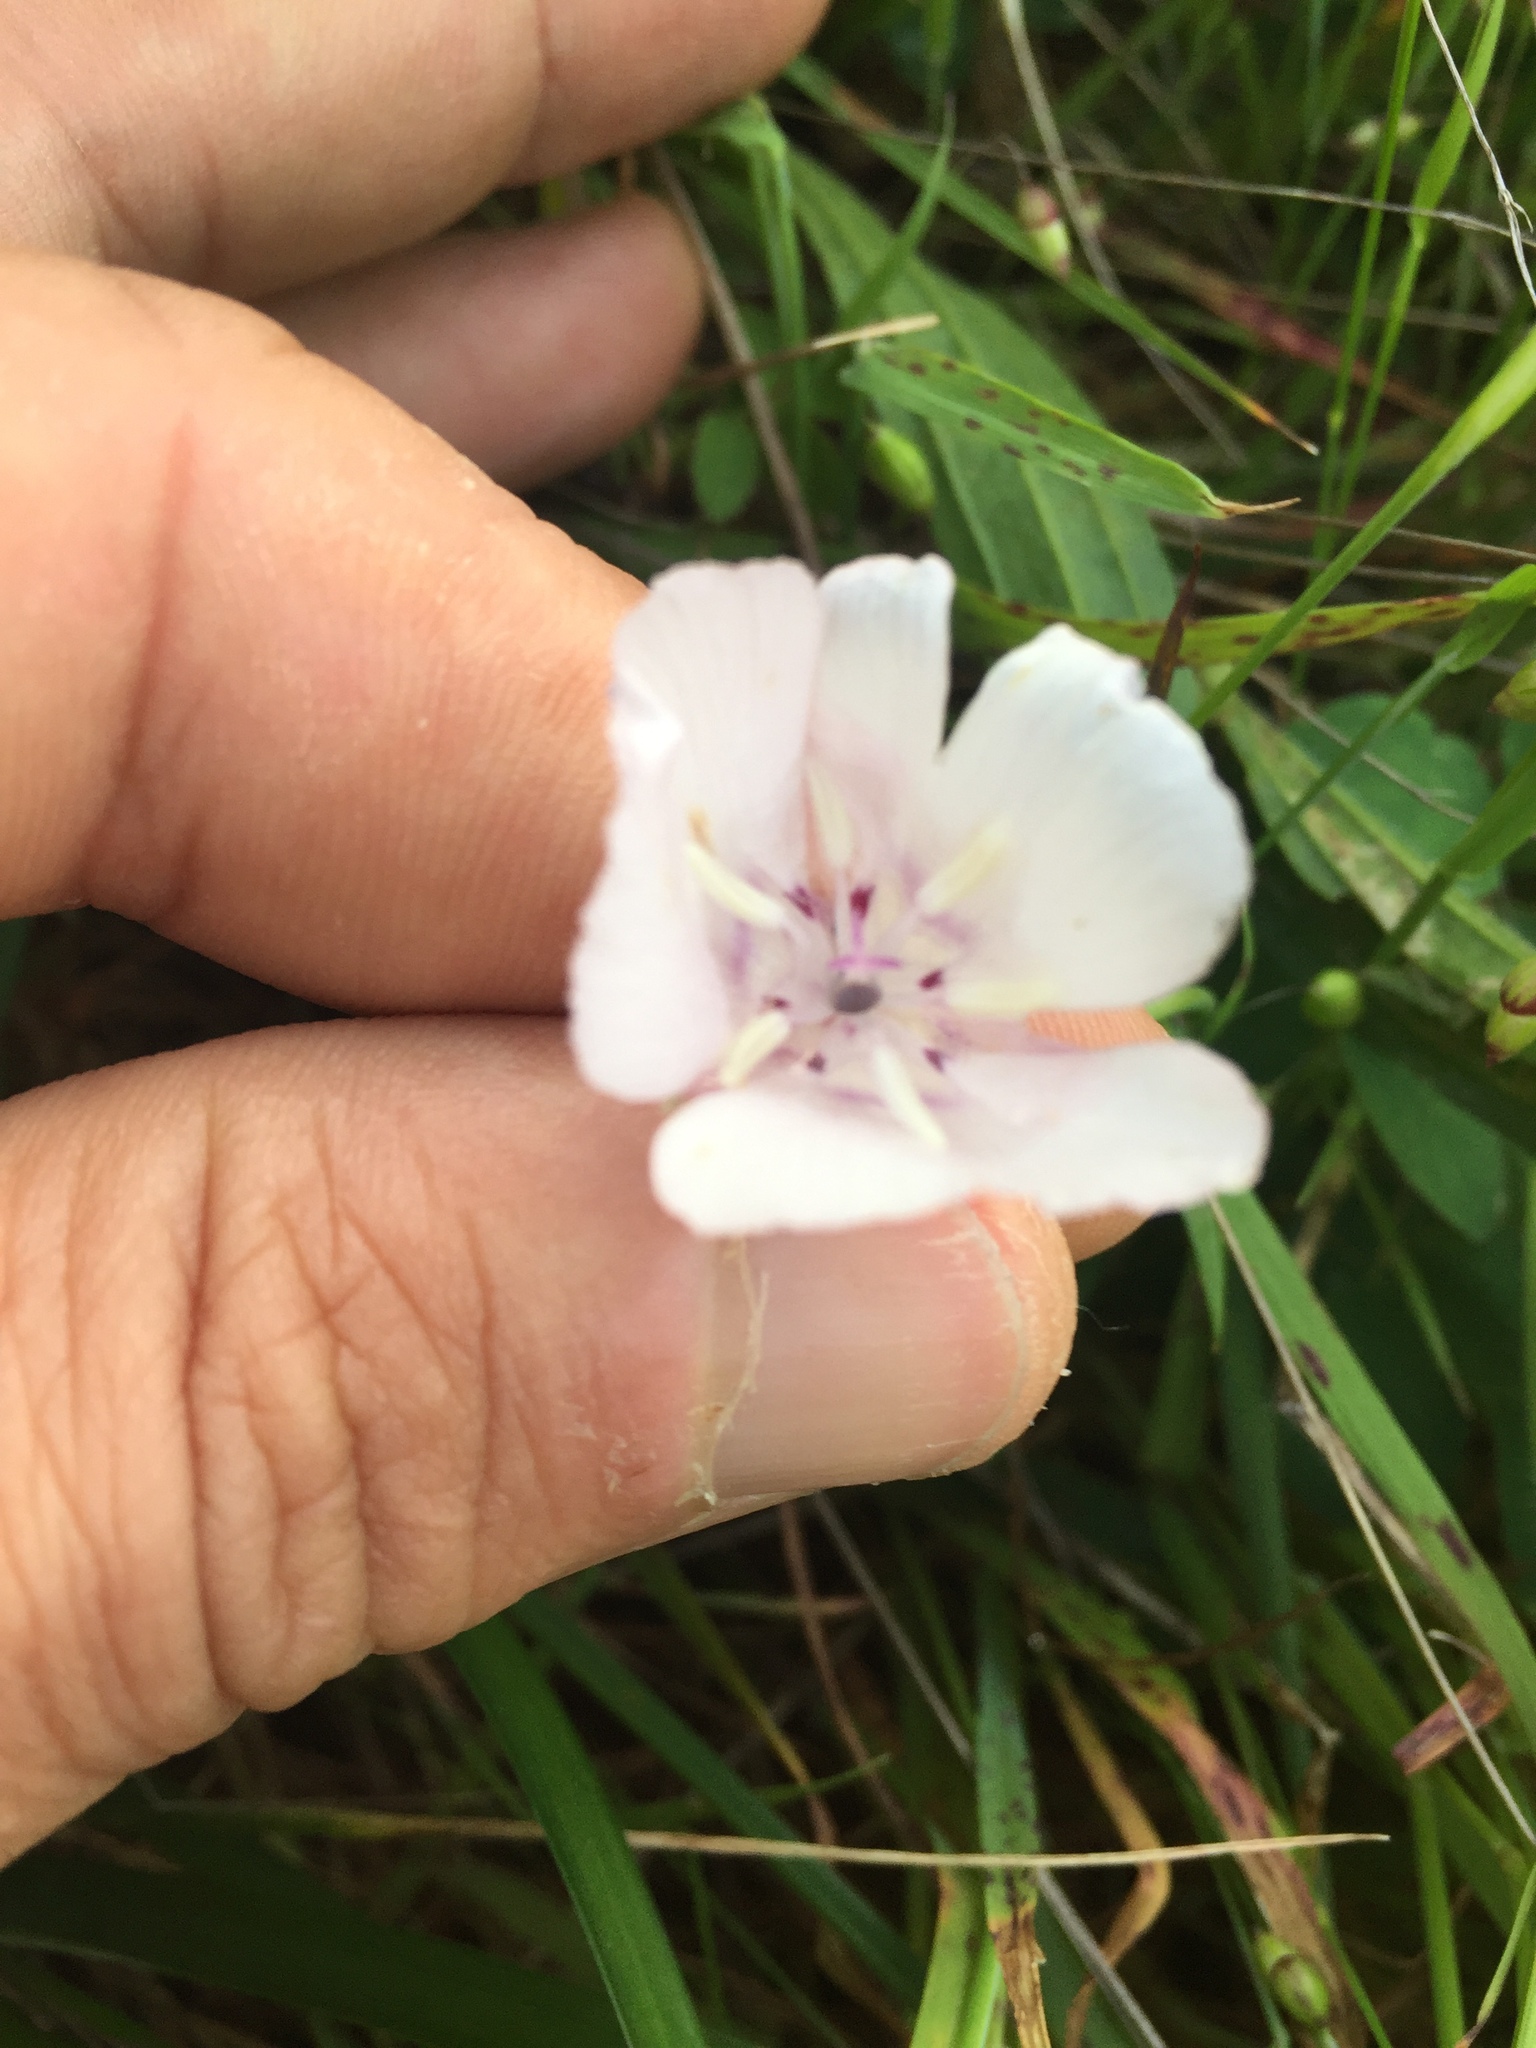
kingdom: Plantae
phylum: Tracheophyta
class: Liliopsida
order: Liliales
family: Liliaceae
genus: Calochortus
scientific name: Calochortus umbellatus
